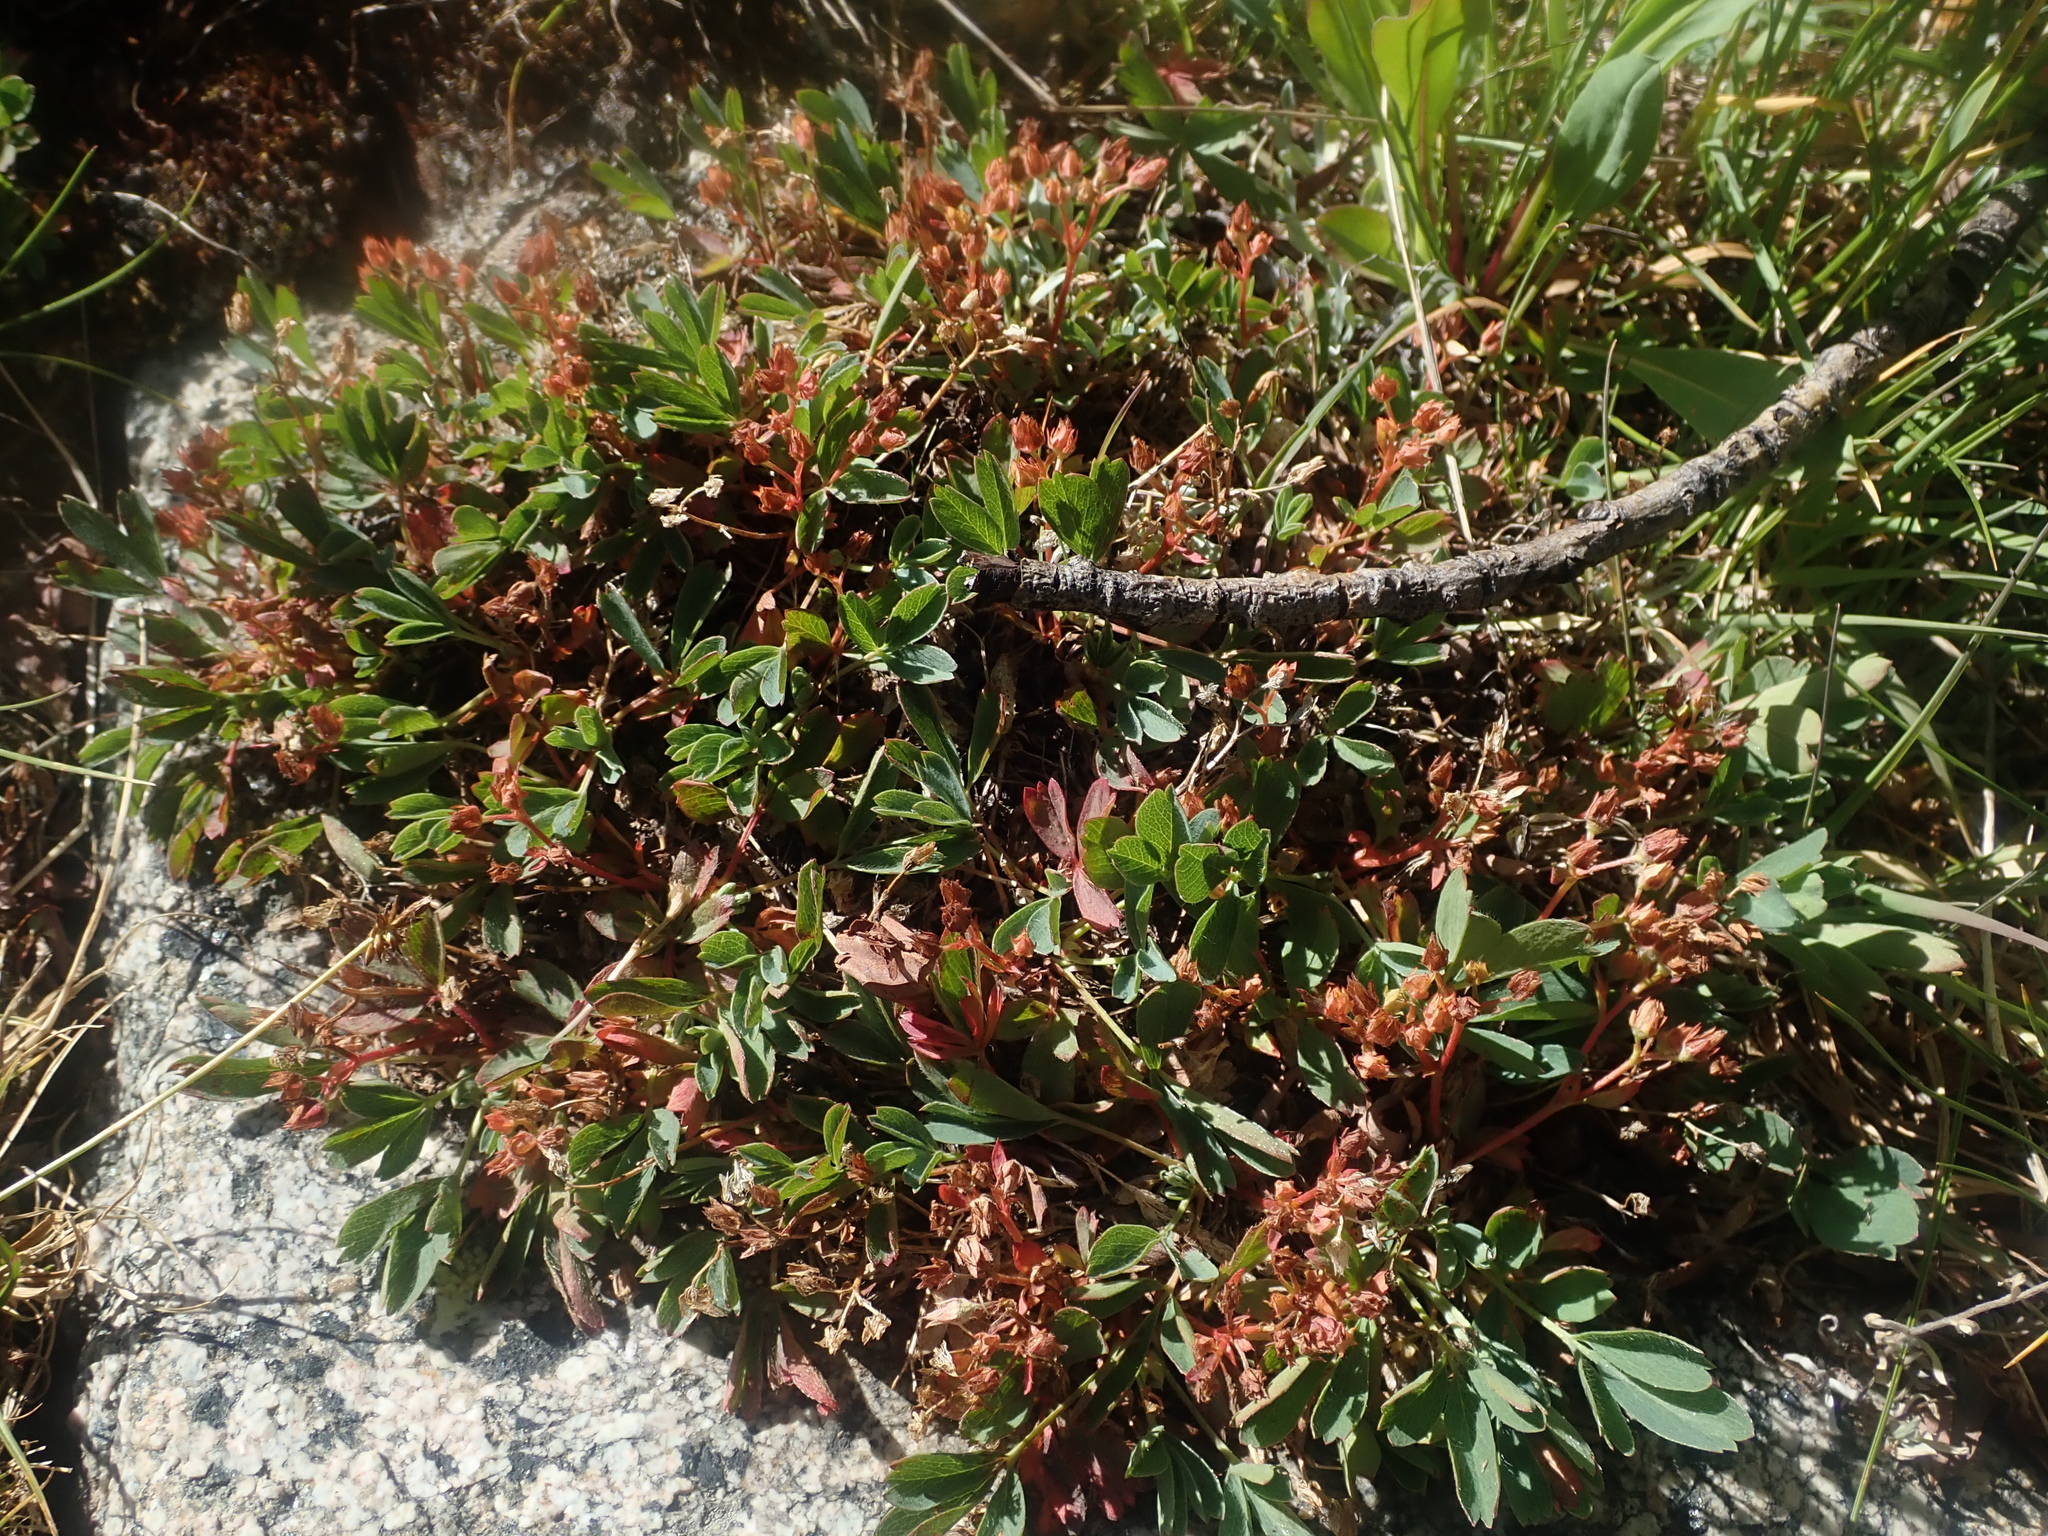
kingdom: Plantae
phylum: Tracheophyta
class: Magnoliopsida
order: Rosales
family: Rosaceae
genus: Sibbaldia
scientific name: Sibbaldia procumbens
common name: Creeping sibbaldia
